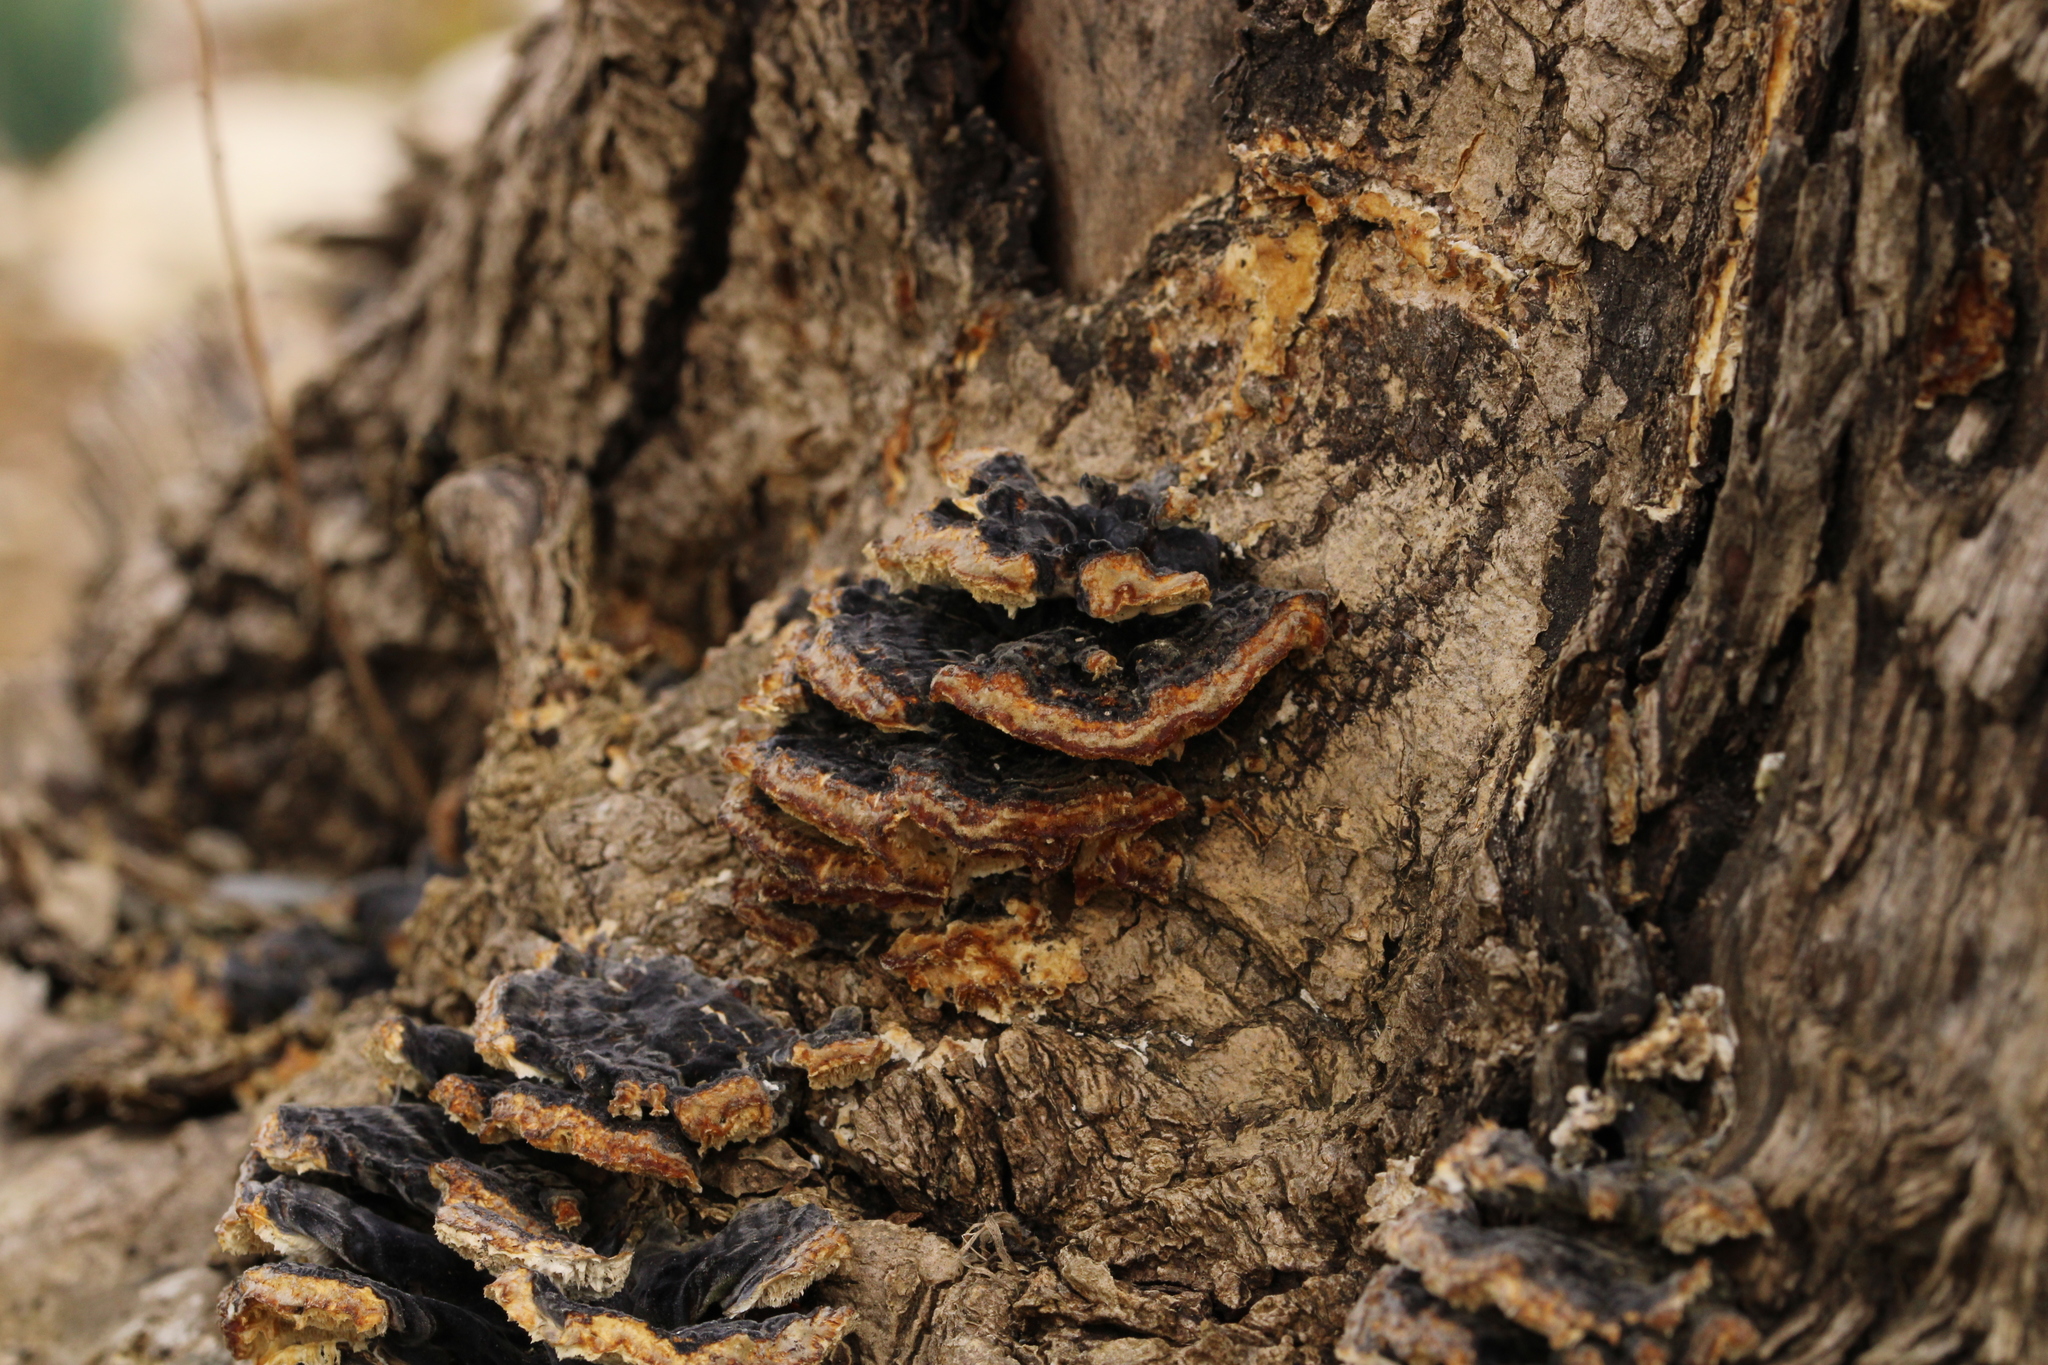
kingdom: Fungi
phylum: Basidiomycota
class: Agaricomycetes
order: Polyporales
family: Polyporaceae
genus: Trametes
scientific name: Trametes versicolor
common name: Turkeytail
